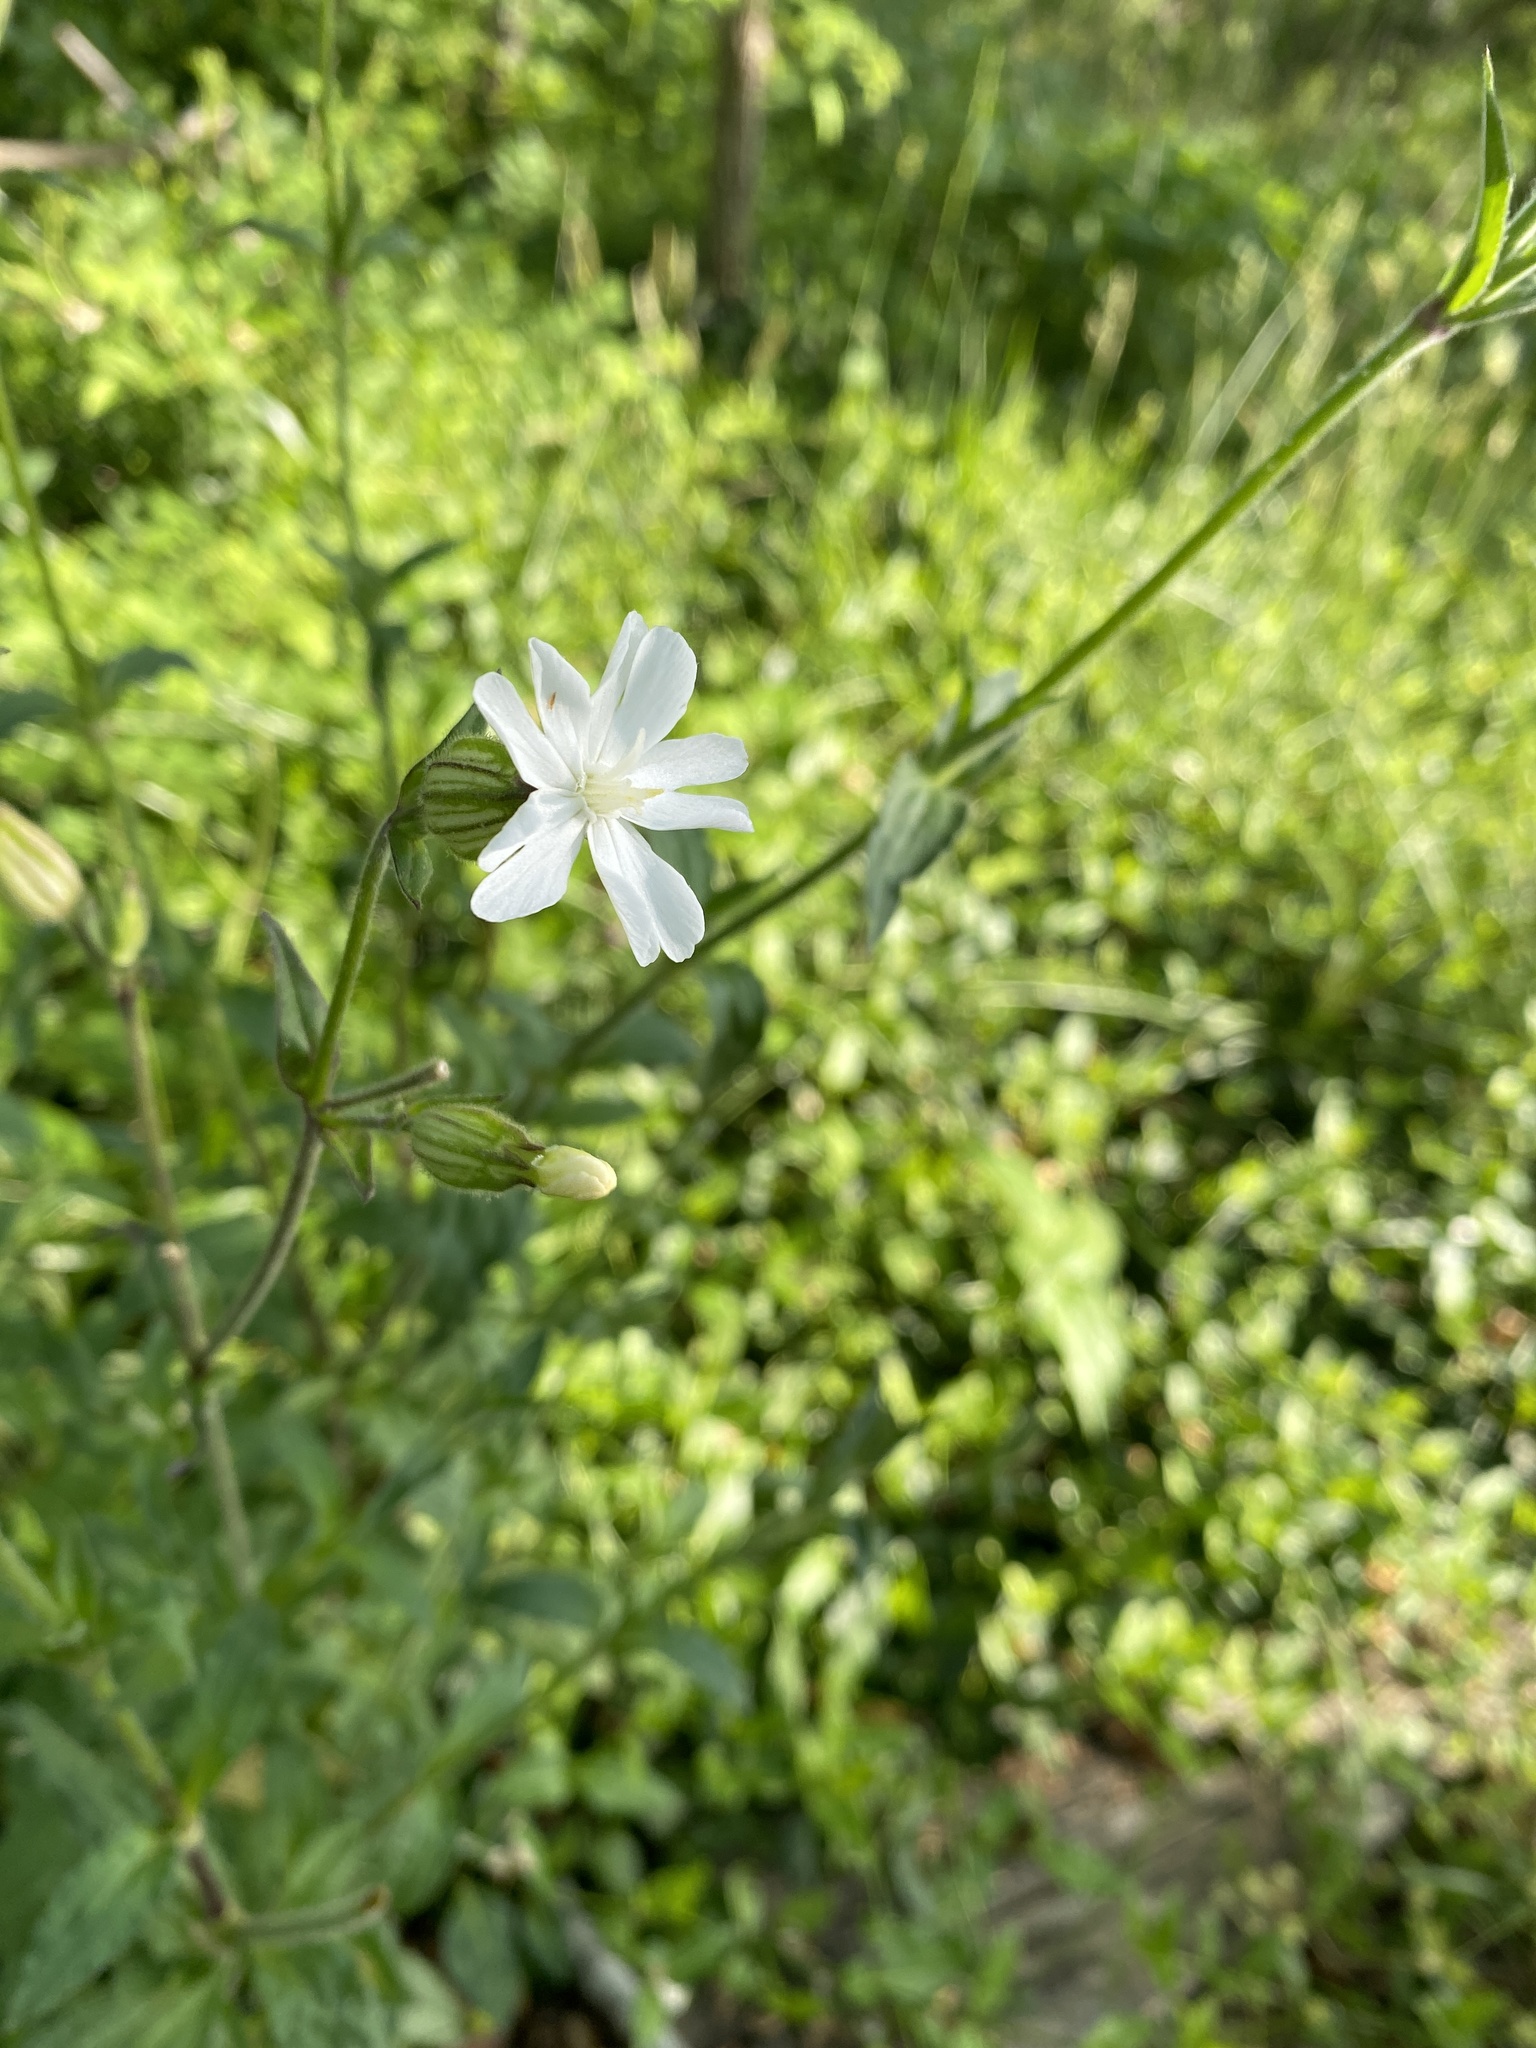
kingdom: Plantae
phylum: Tracheophyta
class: Magnoliopsida
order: Caryophyllales
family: Caryophyllaceae
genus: Silene
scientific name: Silene latifolia
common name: White campion
